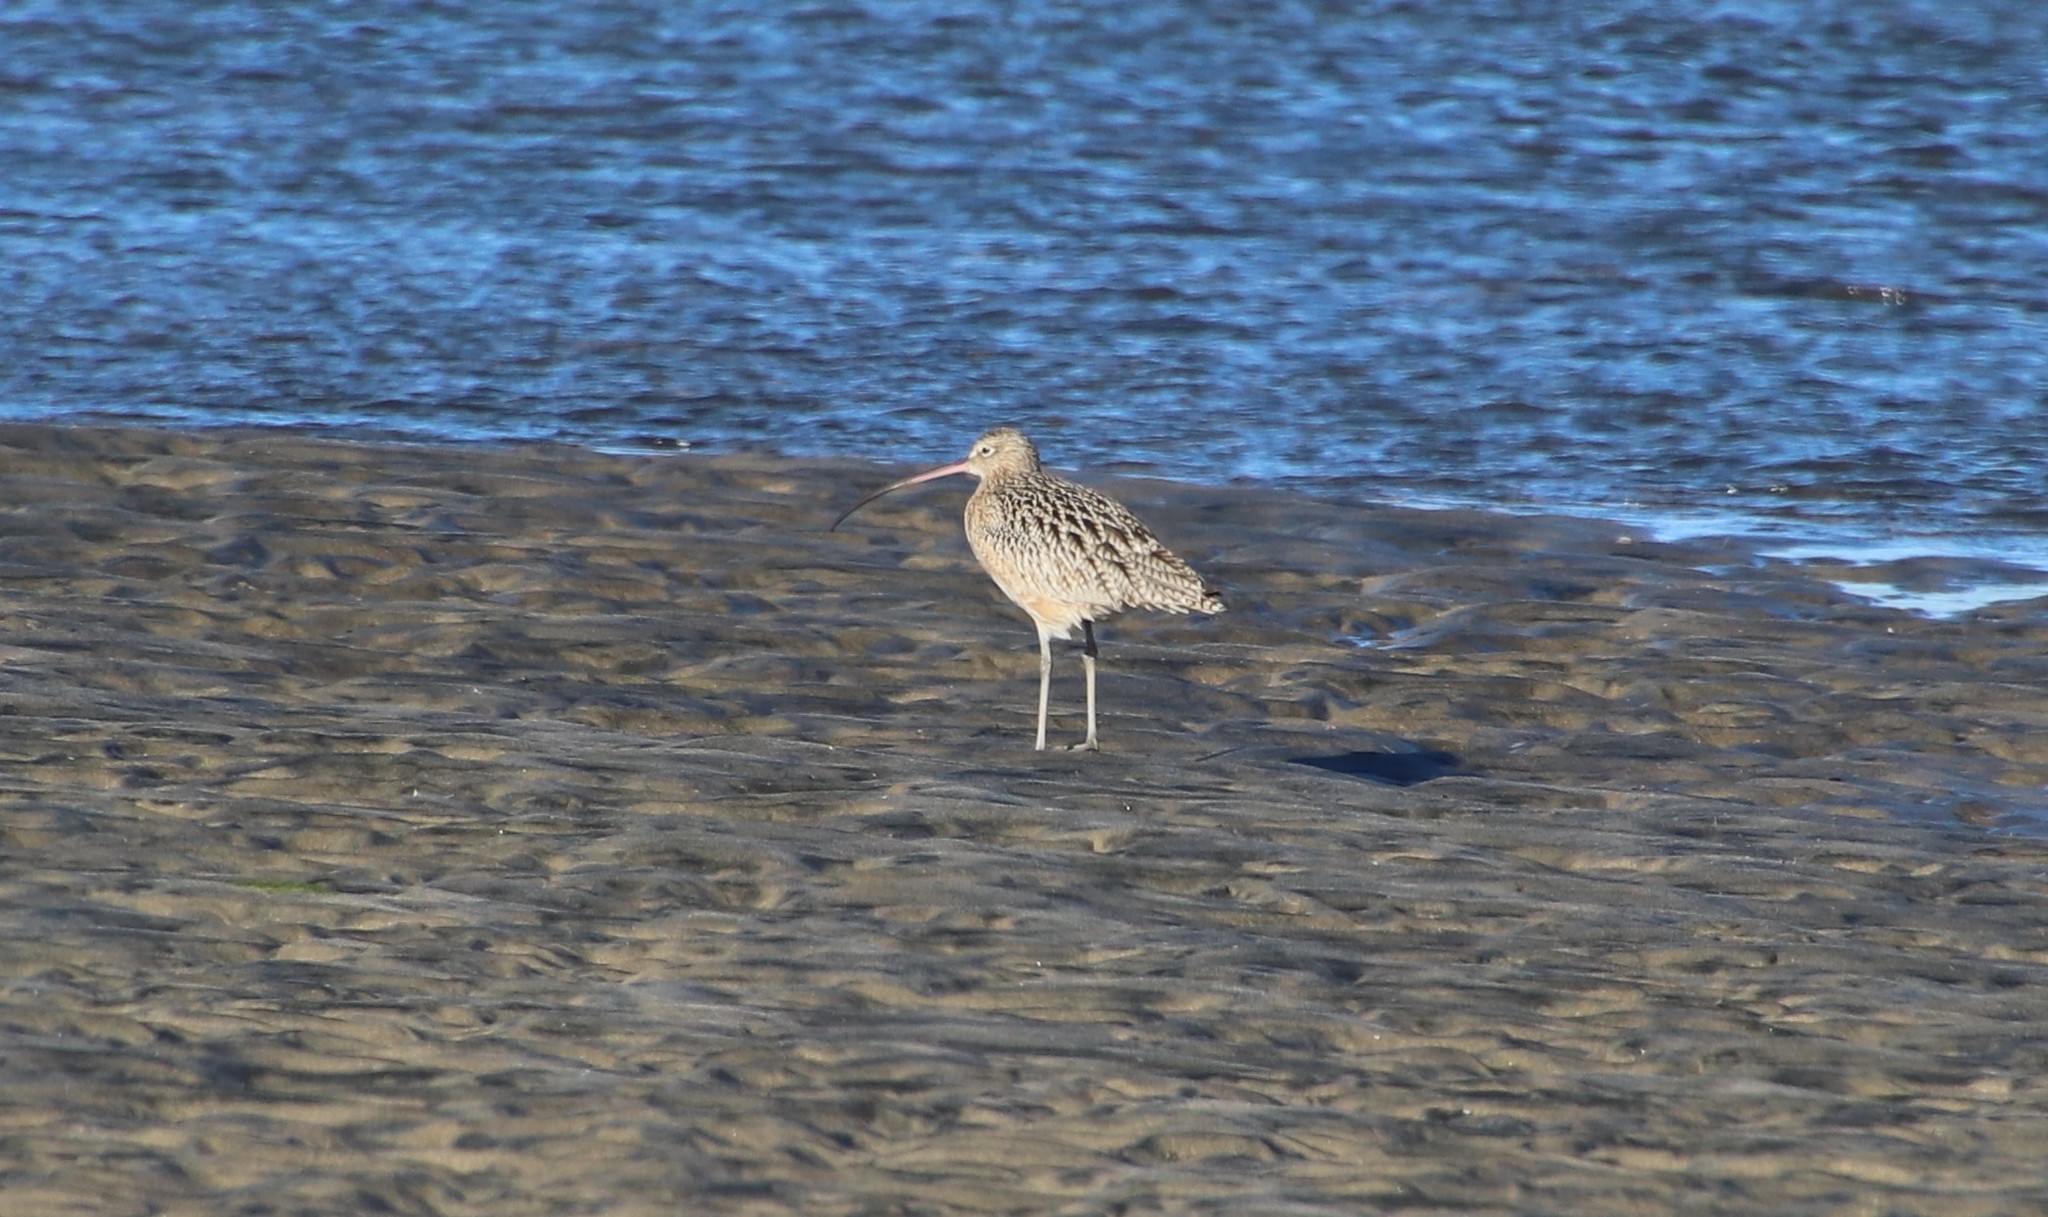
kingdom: Animalia
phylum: Chordata
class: Aves
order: Charadriiformes
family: Scolopacidae
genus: Numenius
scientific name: Numenius americanus
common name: Long-billed curlew
